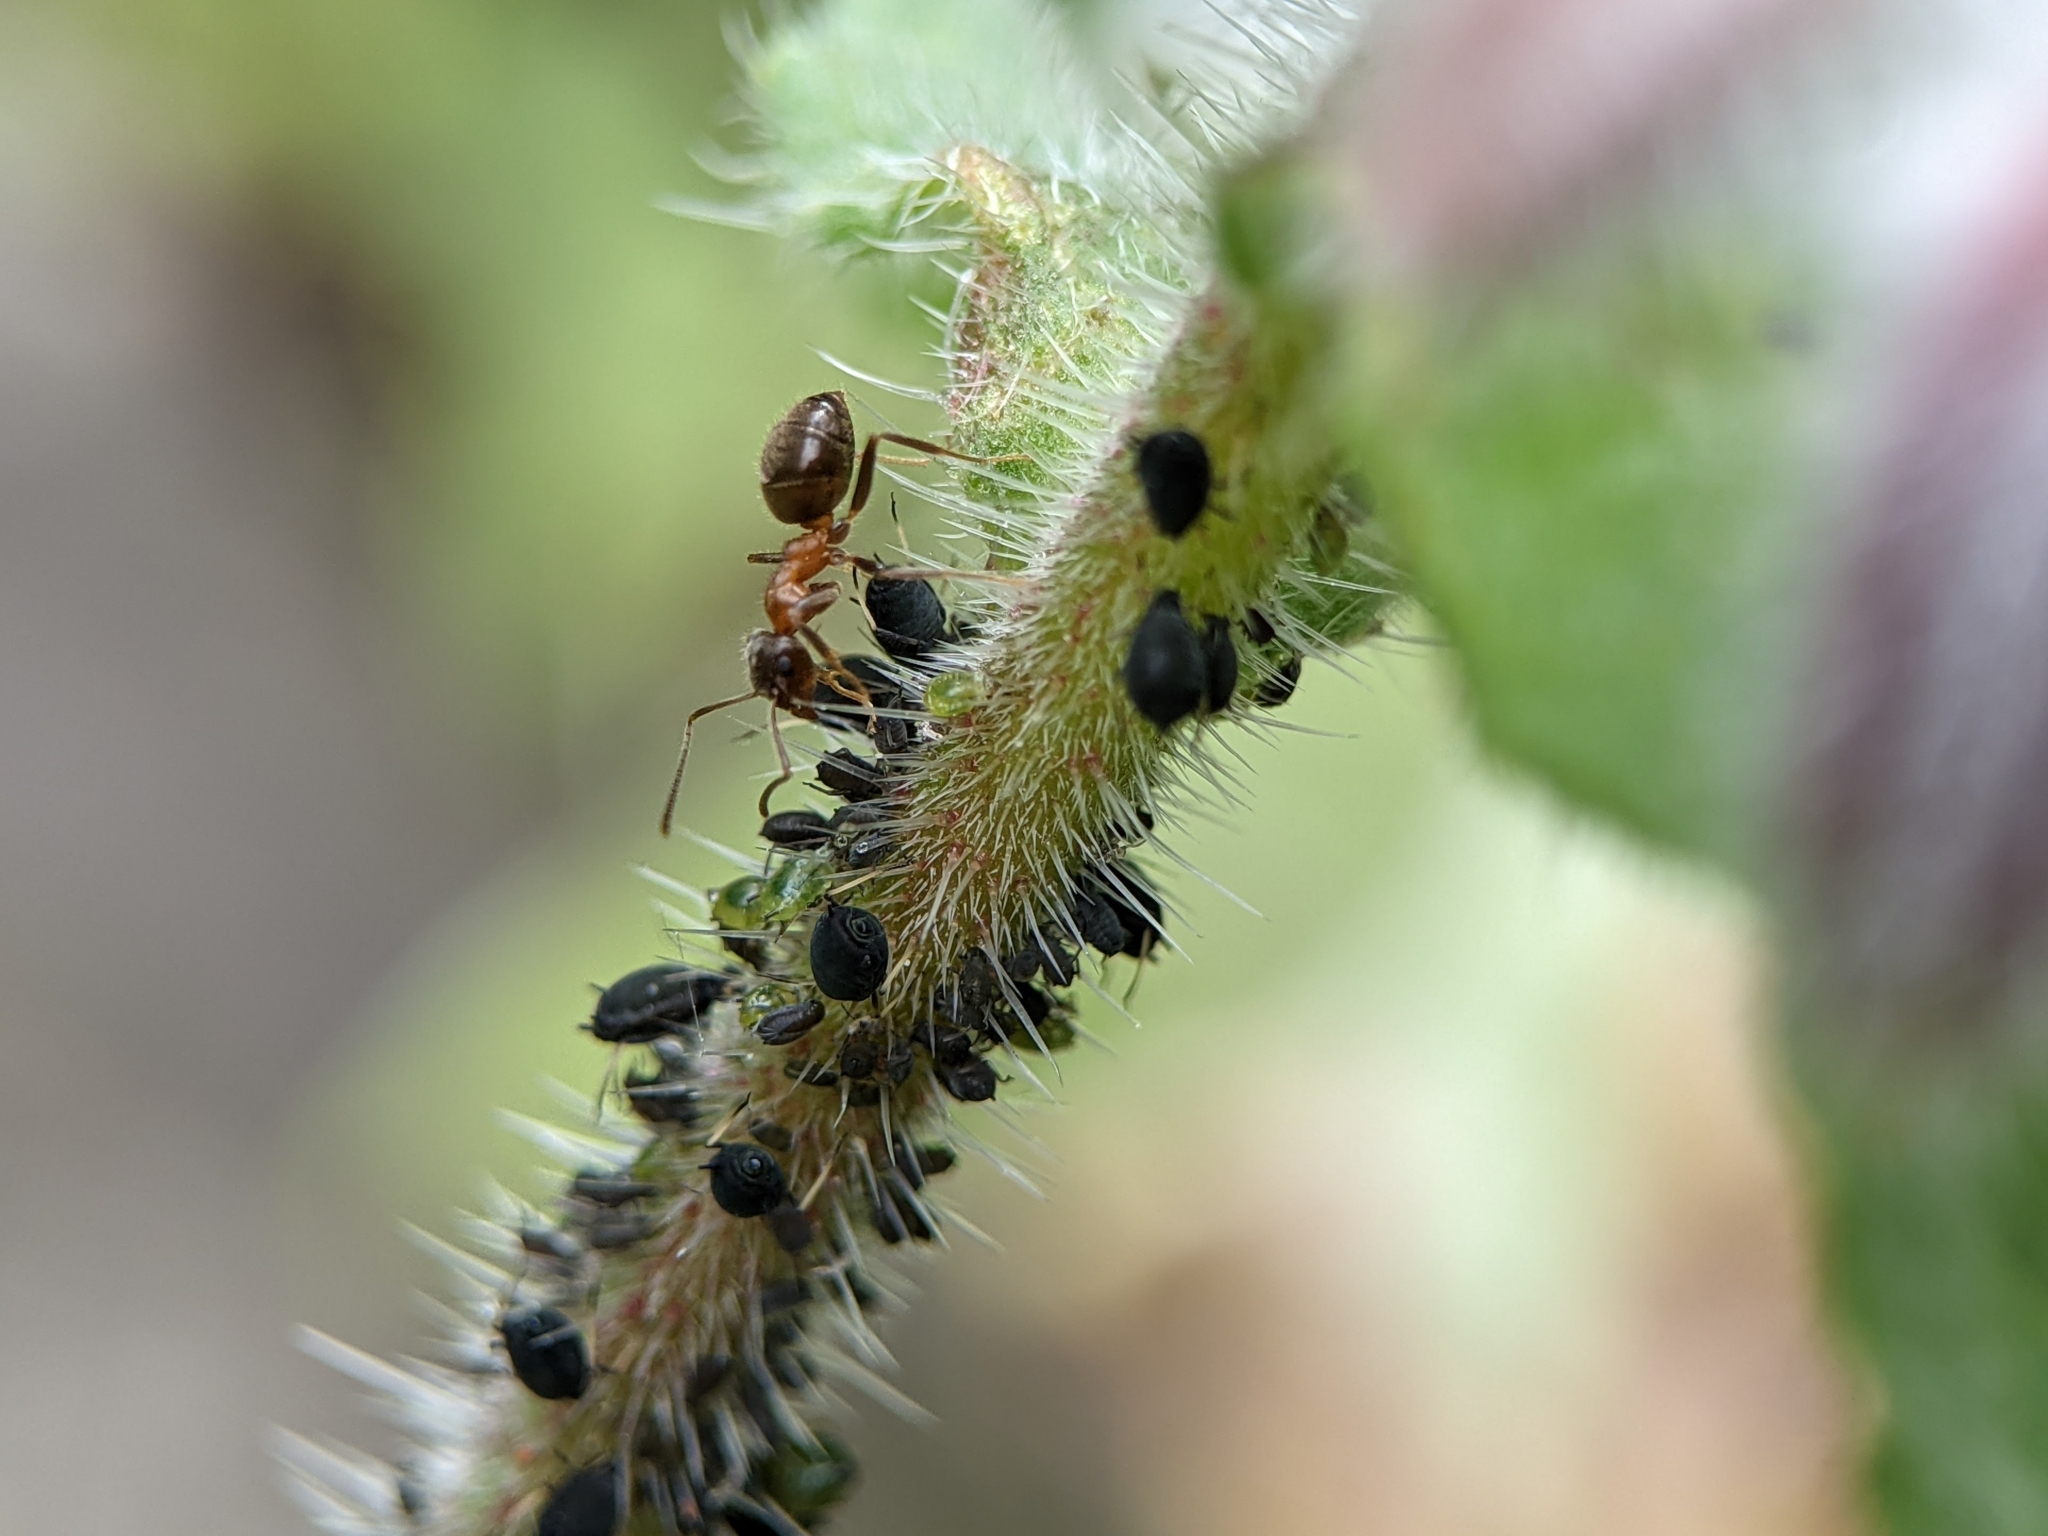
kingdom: Animalia
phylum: Arthropoda
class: Insecta
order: Hymenoptera
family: Formicidae
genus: Lasius
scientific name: Lasius emarginatus
